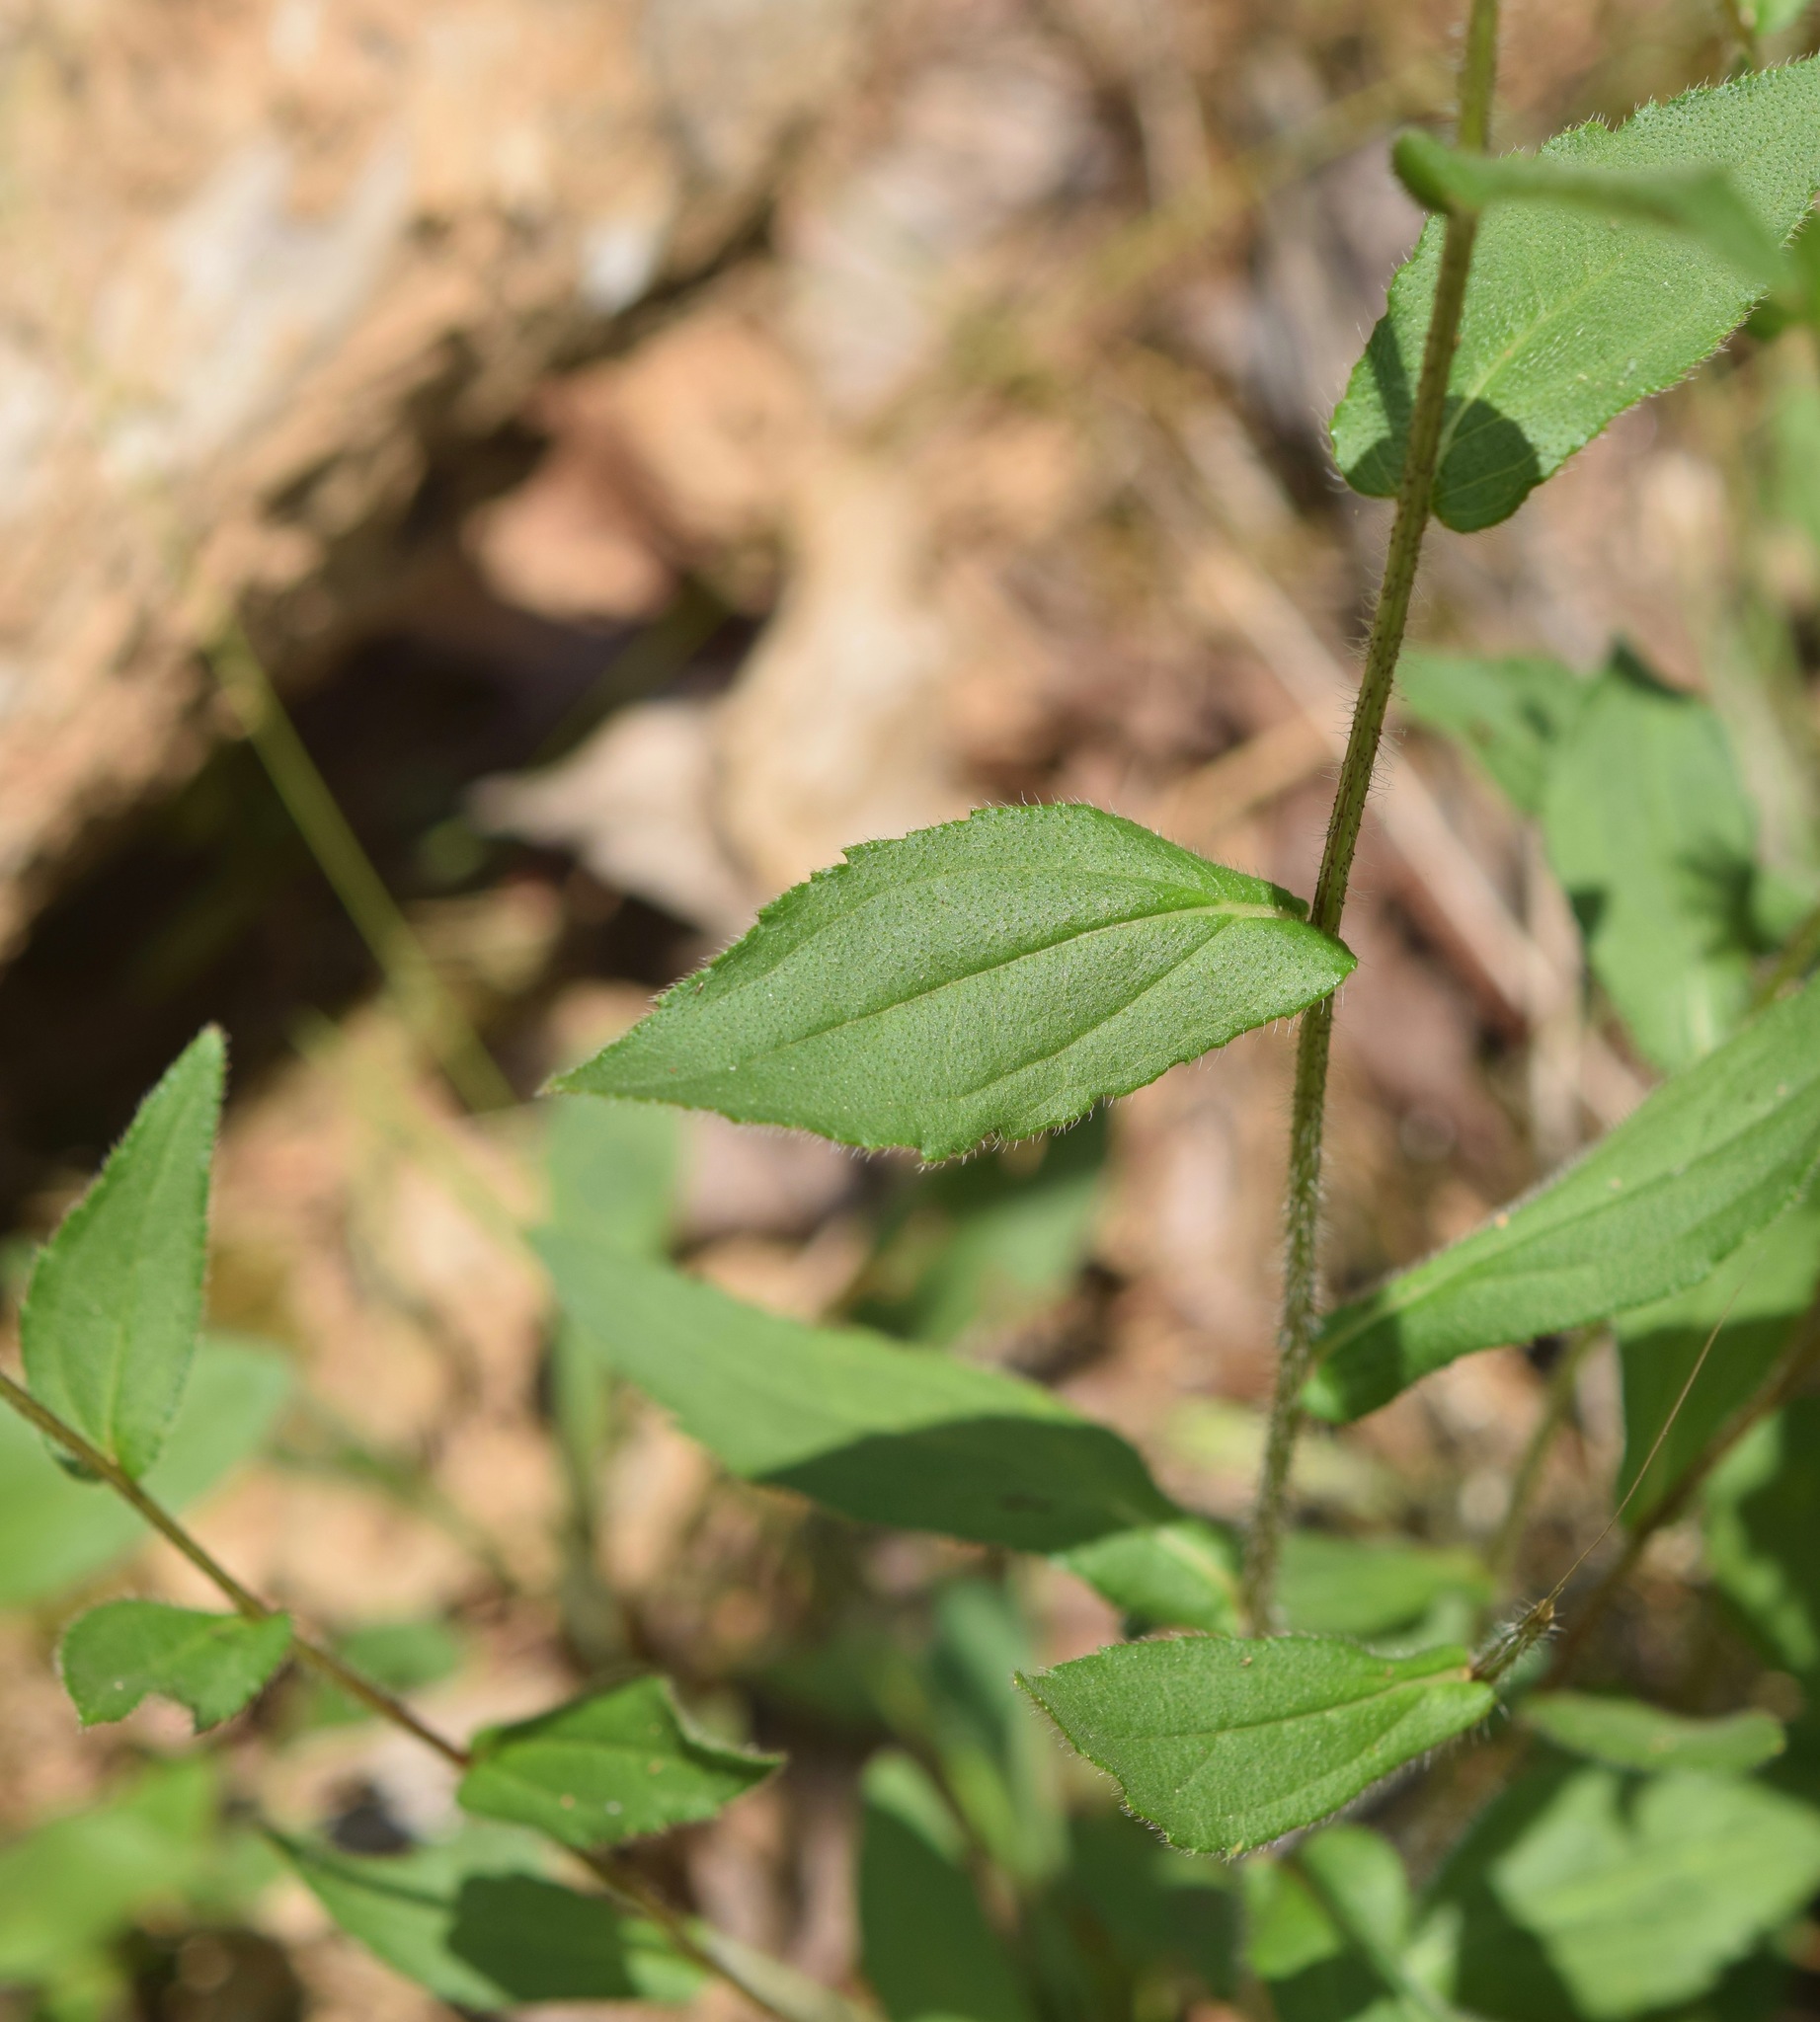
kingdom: Plantae
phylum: Tracheophyta
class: Magnoliopsida
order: Asterales
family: Asteraceae
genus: Rudbeckia
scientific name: Rudbeckia hirta
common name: Black-eyed-susan
